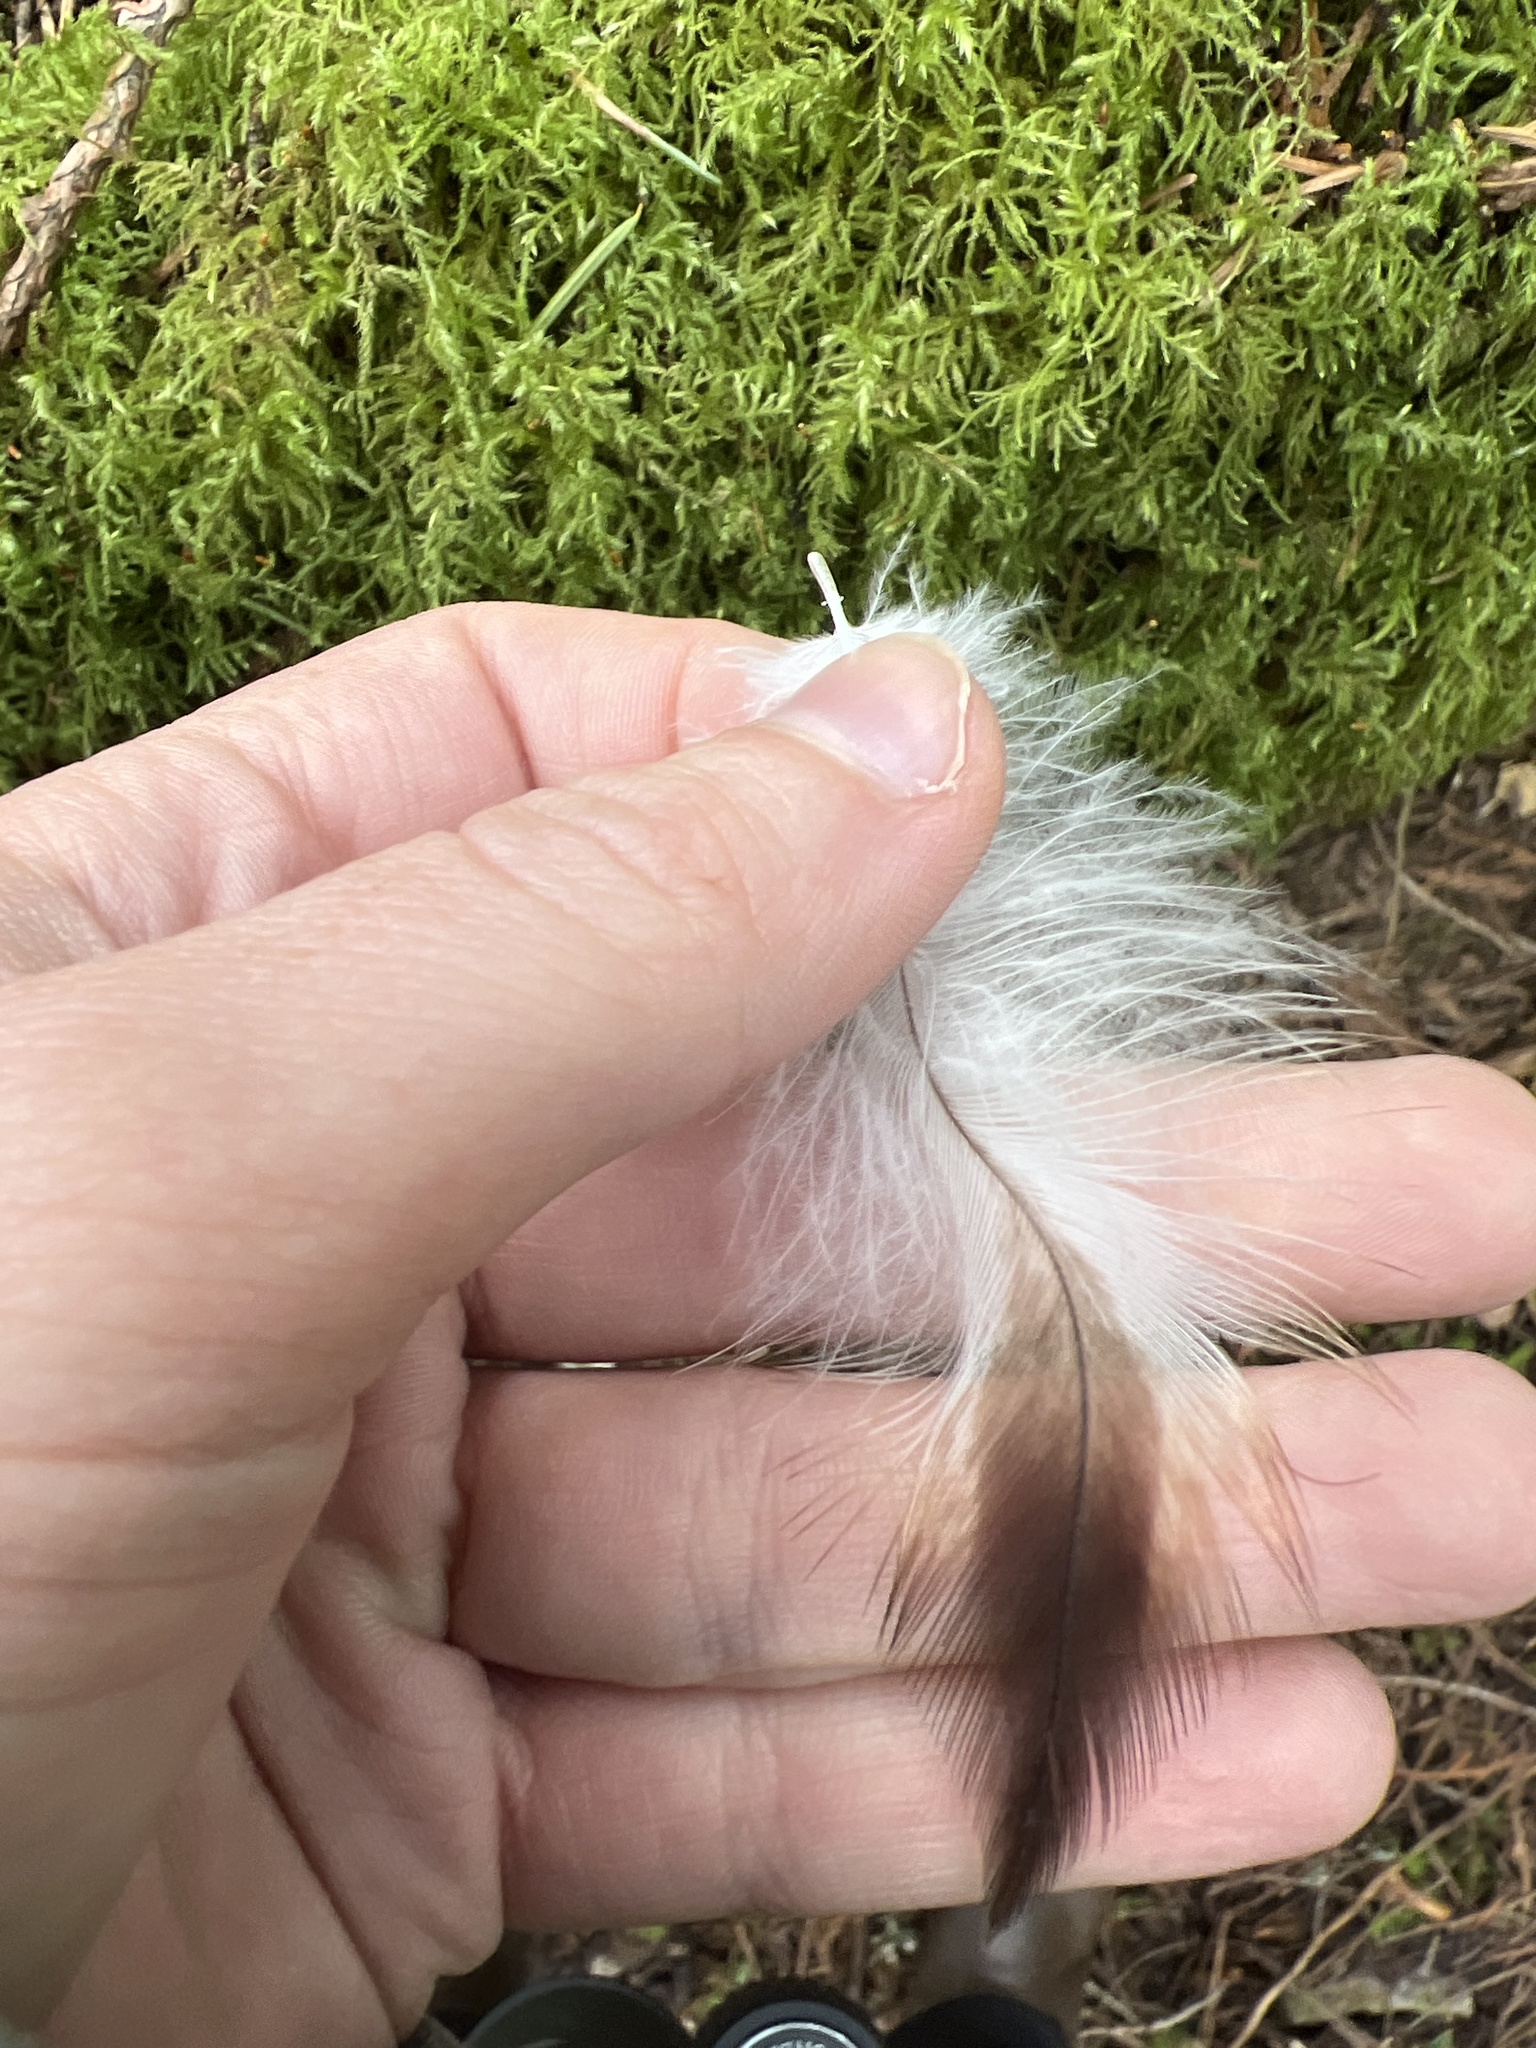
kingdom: Animalia
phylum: Chordata
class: Aves
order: Accipitriformes
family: Accipitridae
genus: Haliaeetus
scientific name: Haliaeetus leucocephalus
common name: Bald eagle
